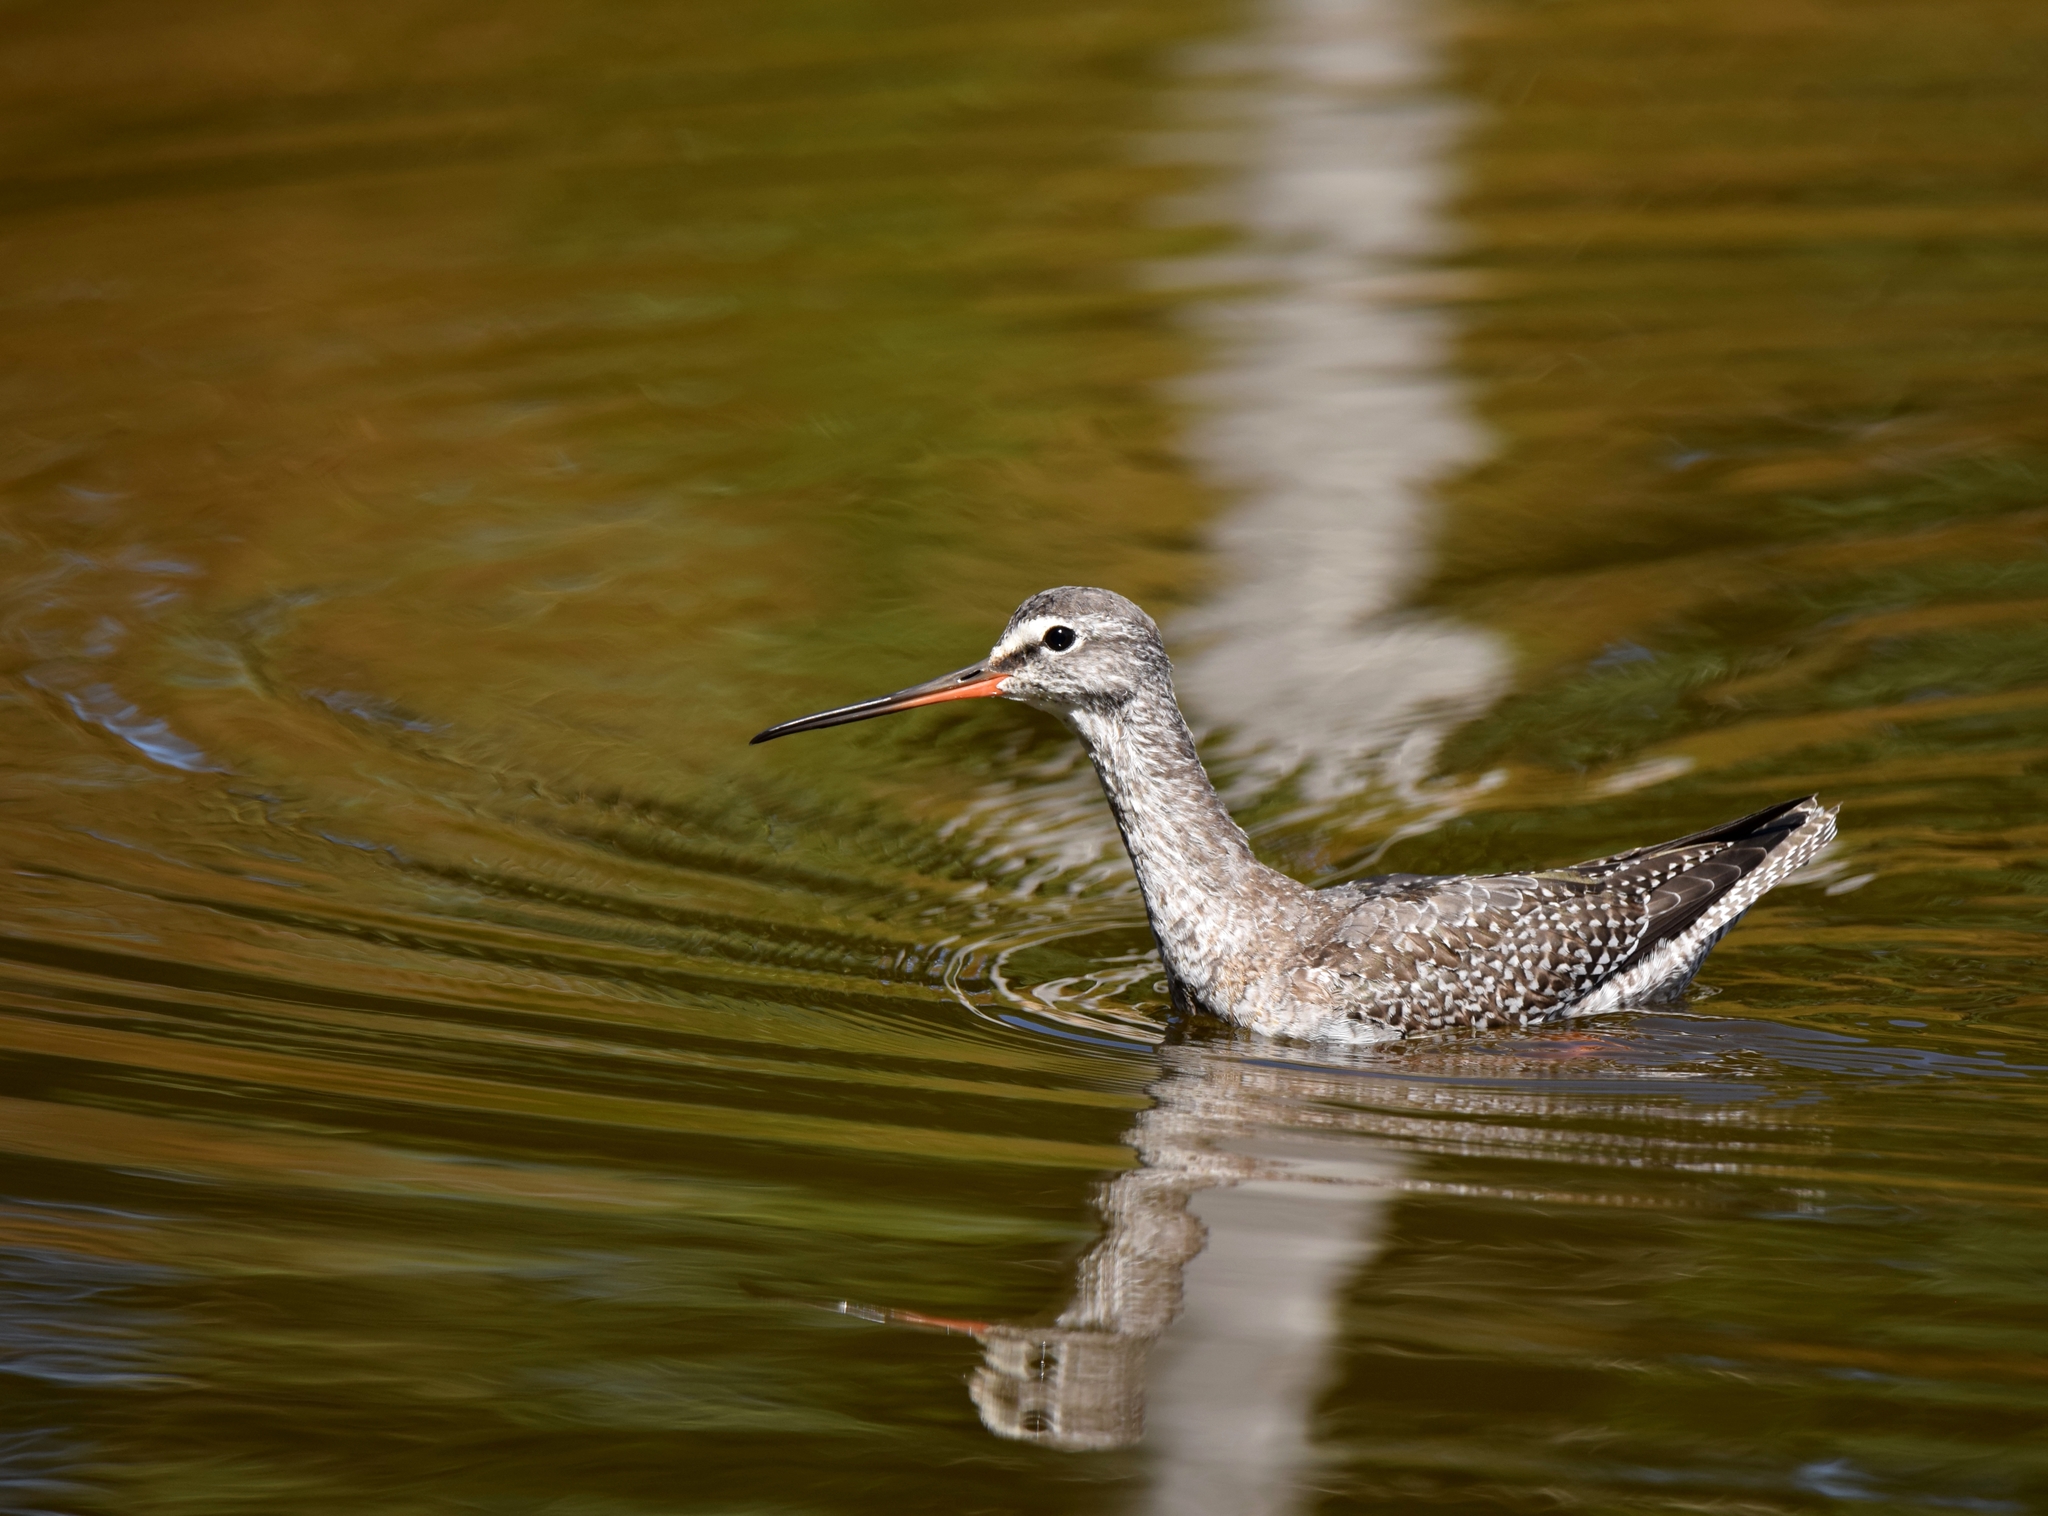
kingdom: Animalia
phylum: Chordata
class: Aves
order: Charadriiformes
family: Scolopacidae
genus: Tringa
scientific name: Tringa erythropus
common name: Spotted redshank
